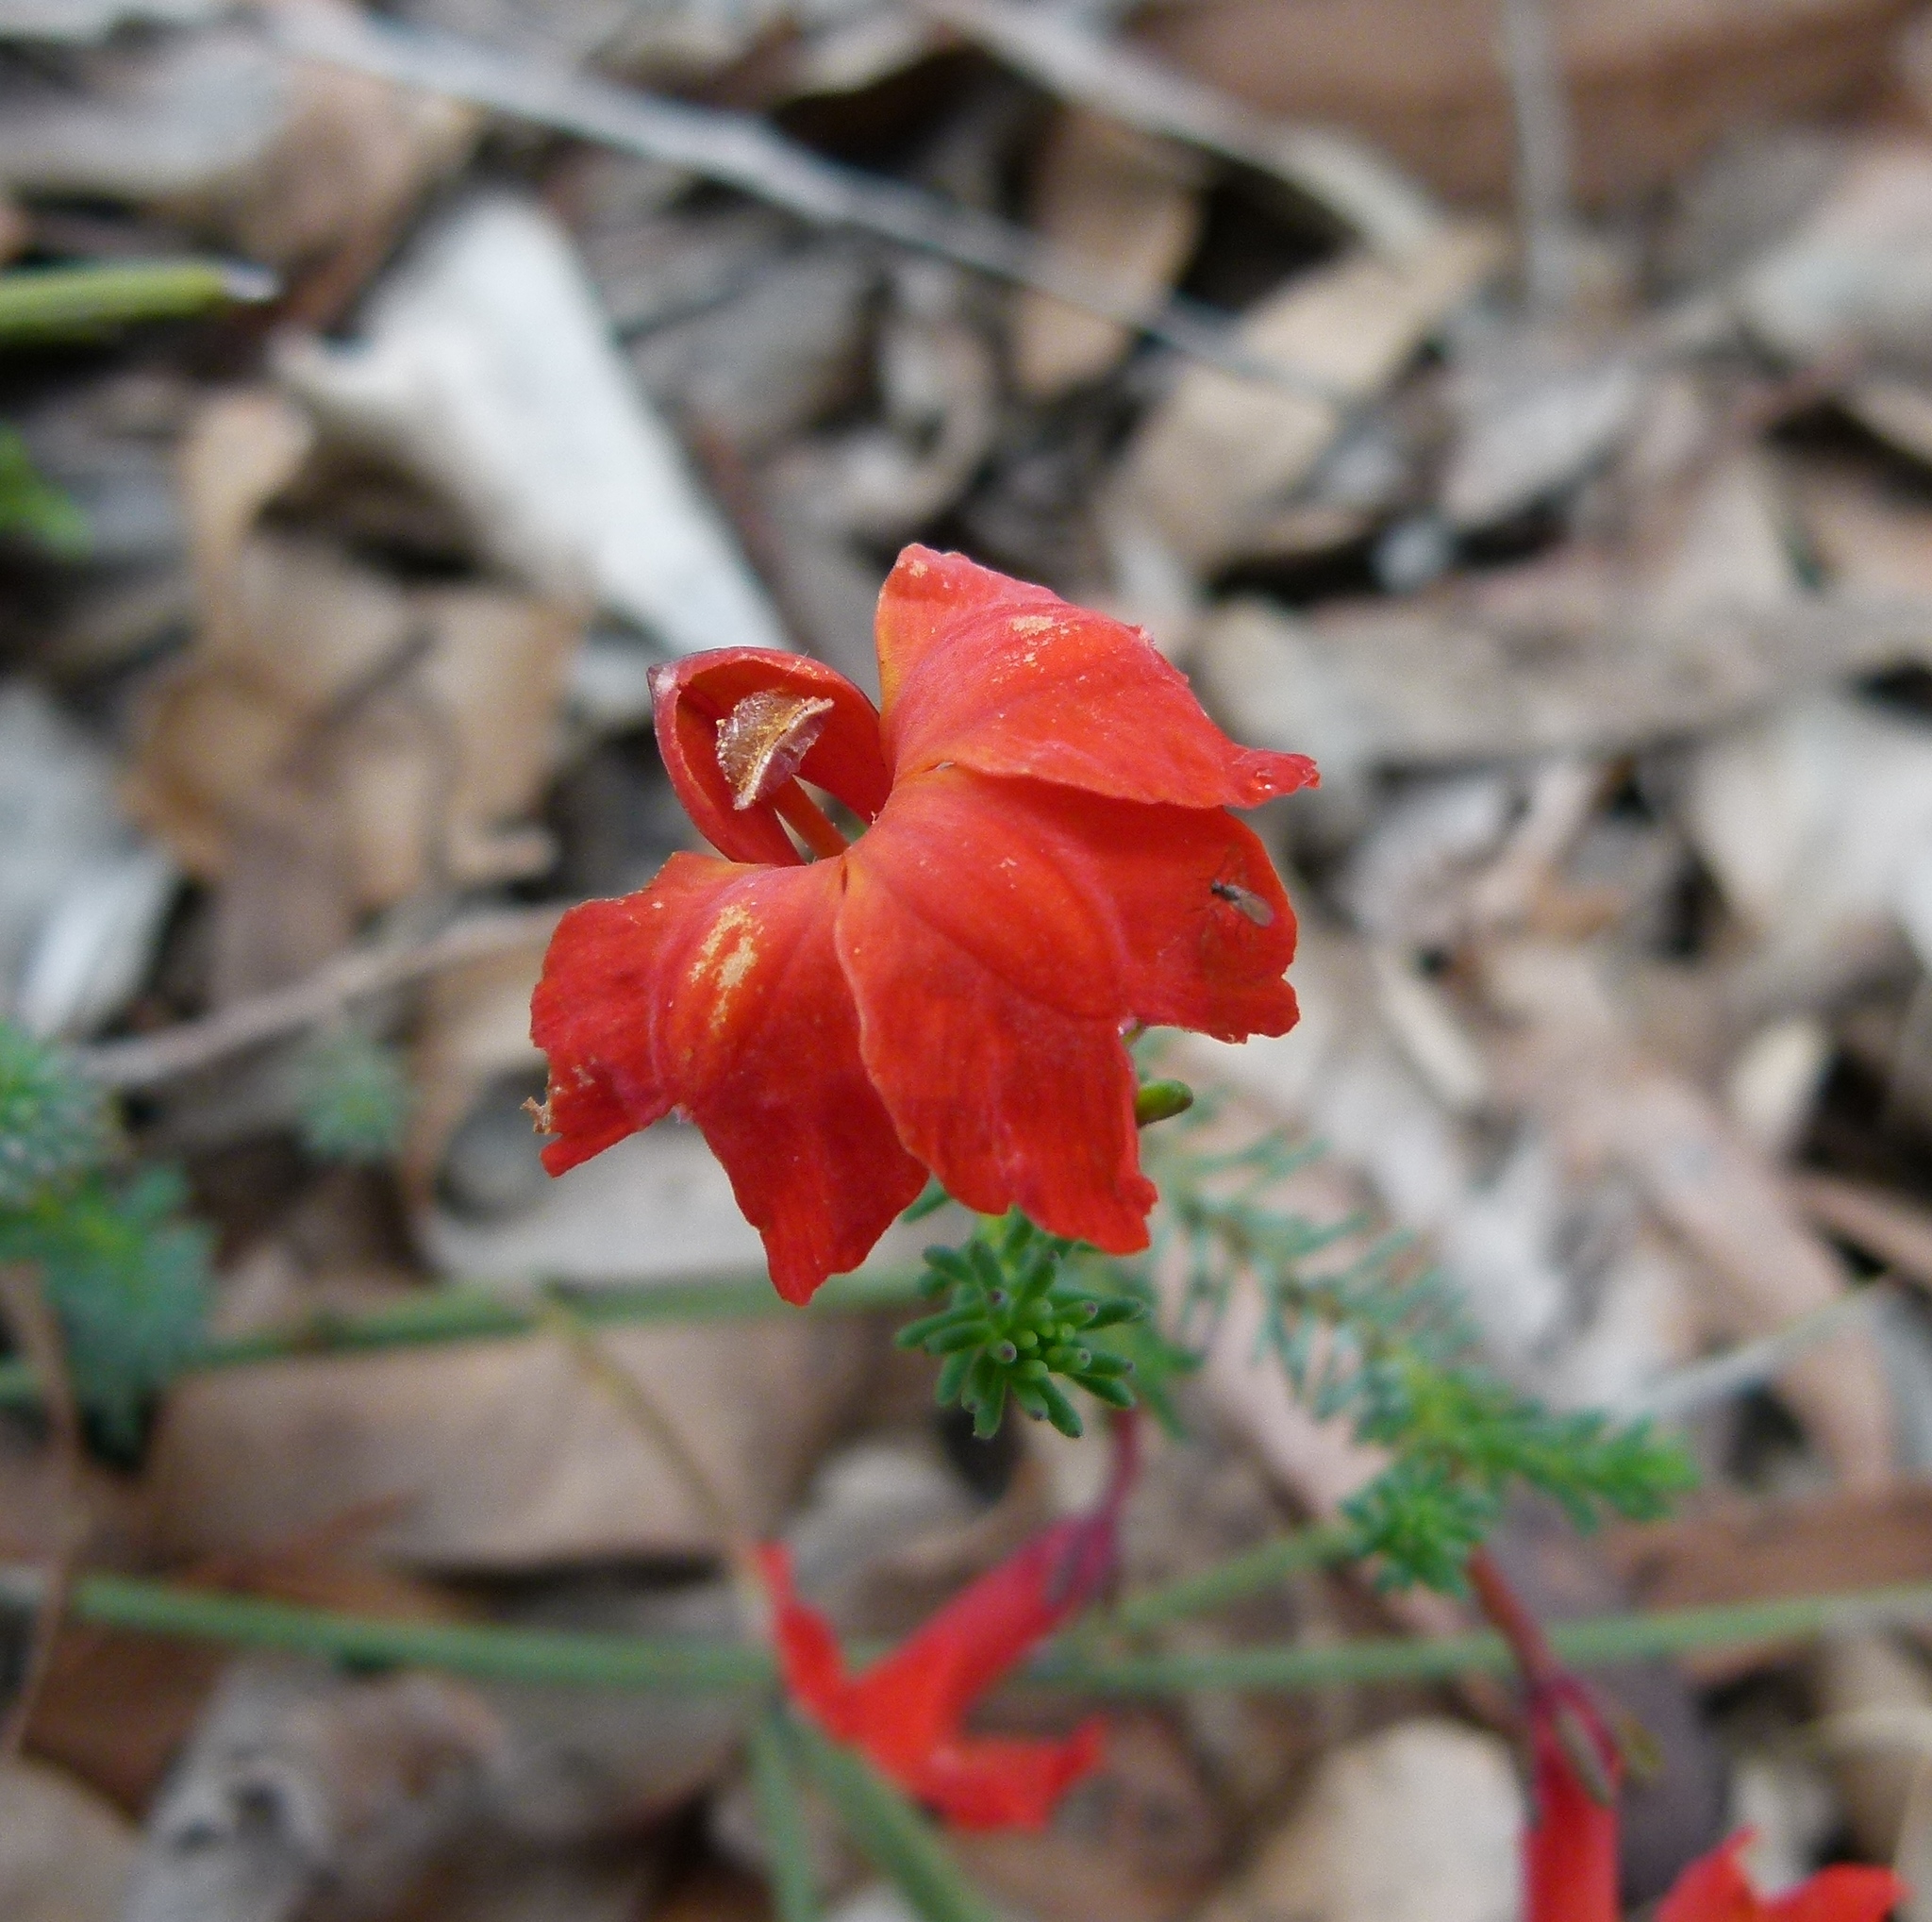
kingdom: Plantae
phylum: Tracheophyta
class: Magnoliopsida
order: Asterales
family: Goodeniaceae
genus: Lechenaultia
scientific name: Lechenaultia formosa
